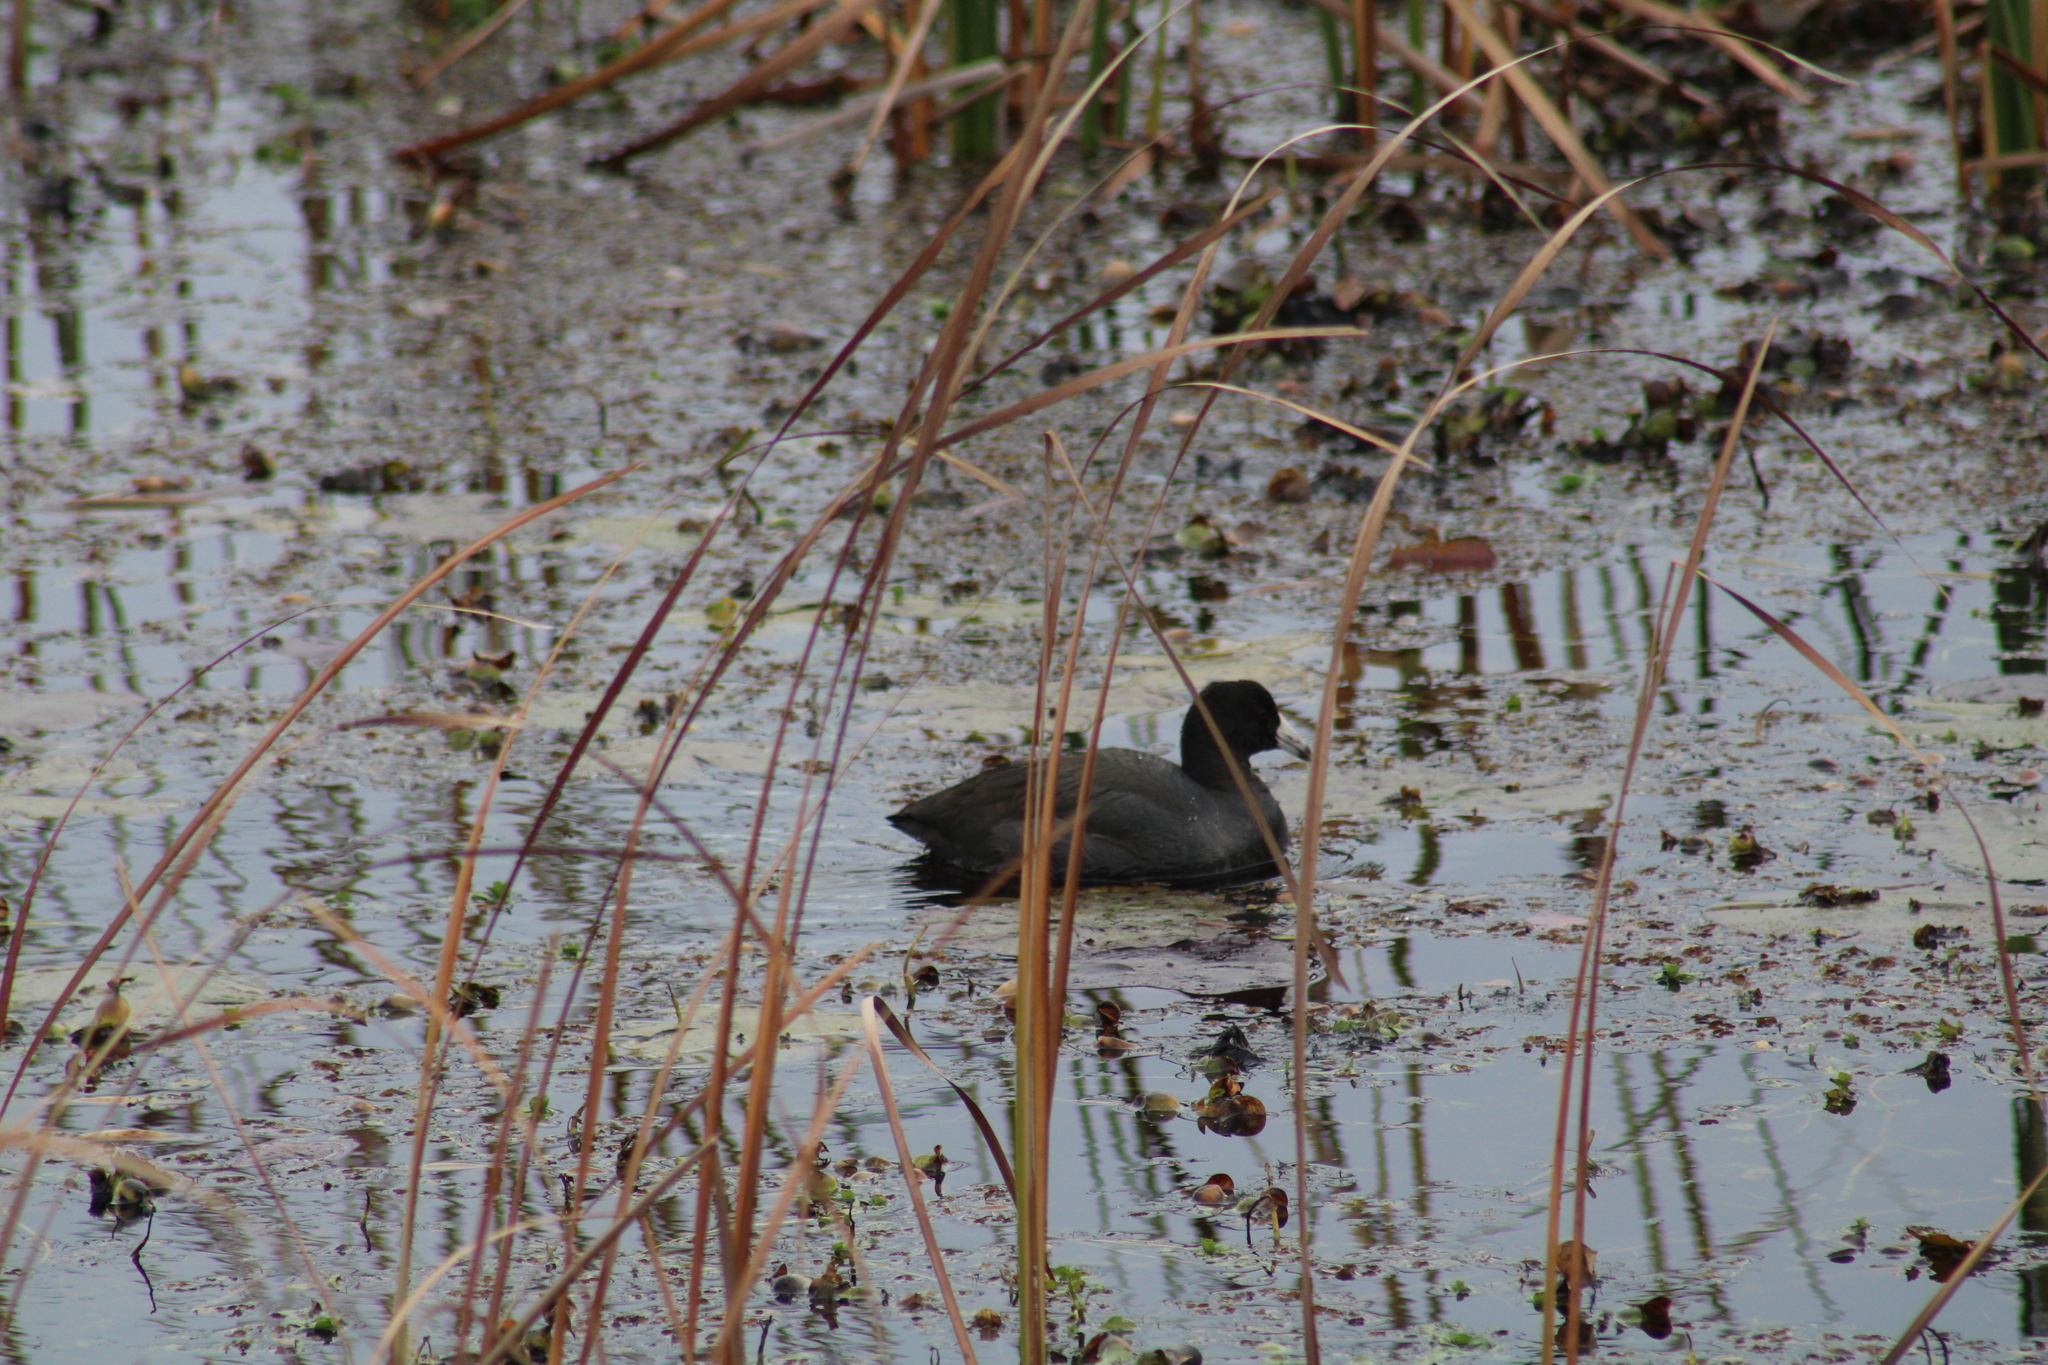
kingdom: Animalia
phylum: Chordata
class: Aves
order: Gruiformes
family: Rallidae
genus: Fulica
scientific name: Fulica americana
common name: American coot
